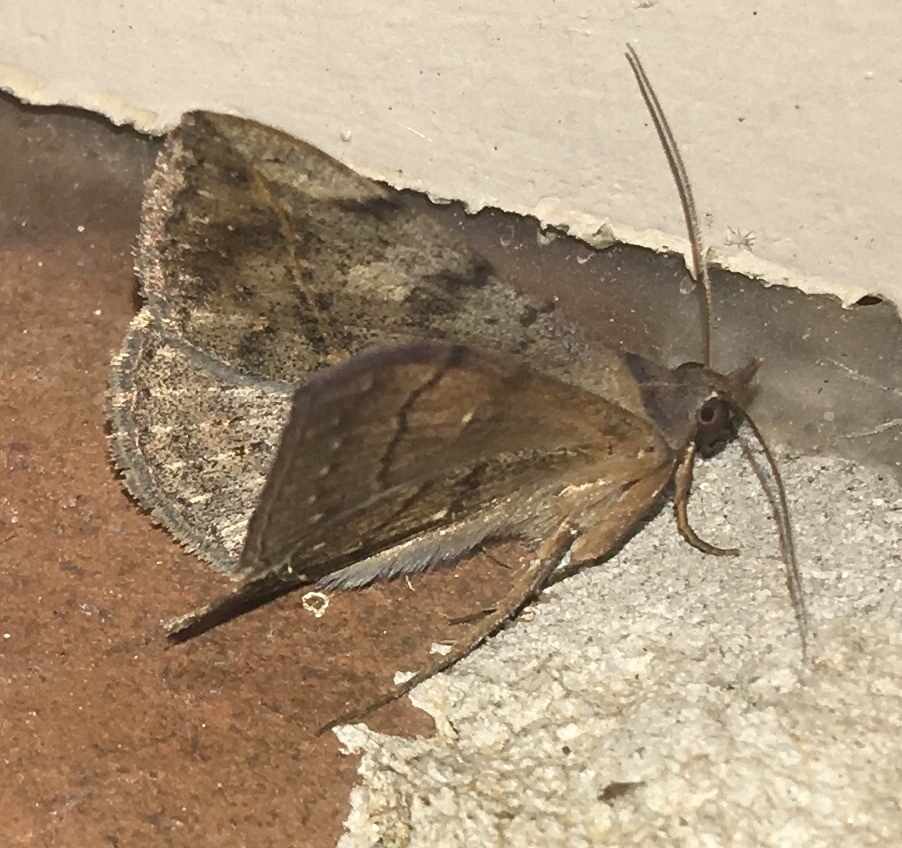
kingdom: Animalia
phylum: Arthropoda
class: Insecta
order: Lepidoptera
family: Erebidae
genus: Anticarsia
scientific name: Anticarsia gemmatalis
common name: Cutworm moth
